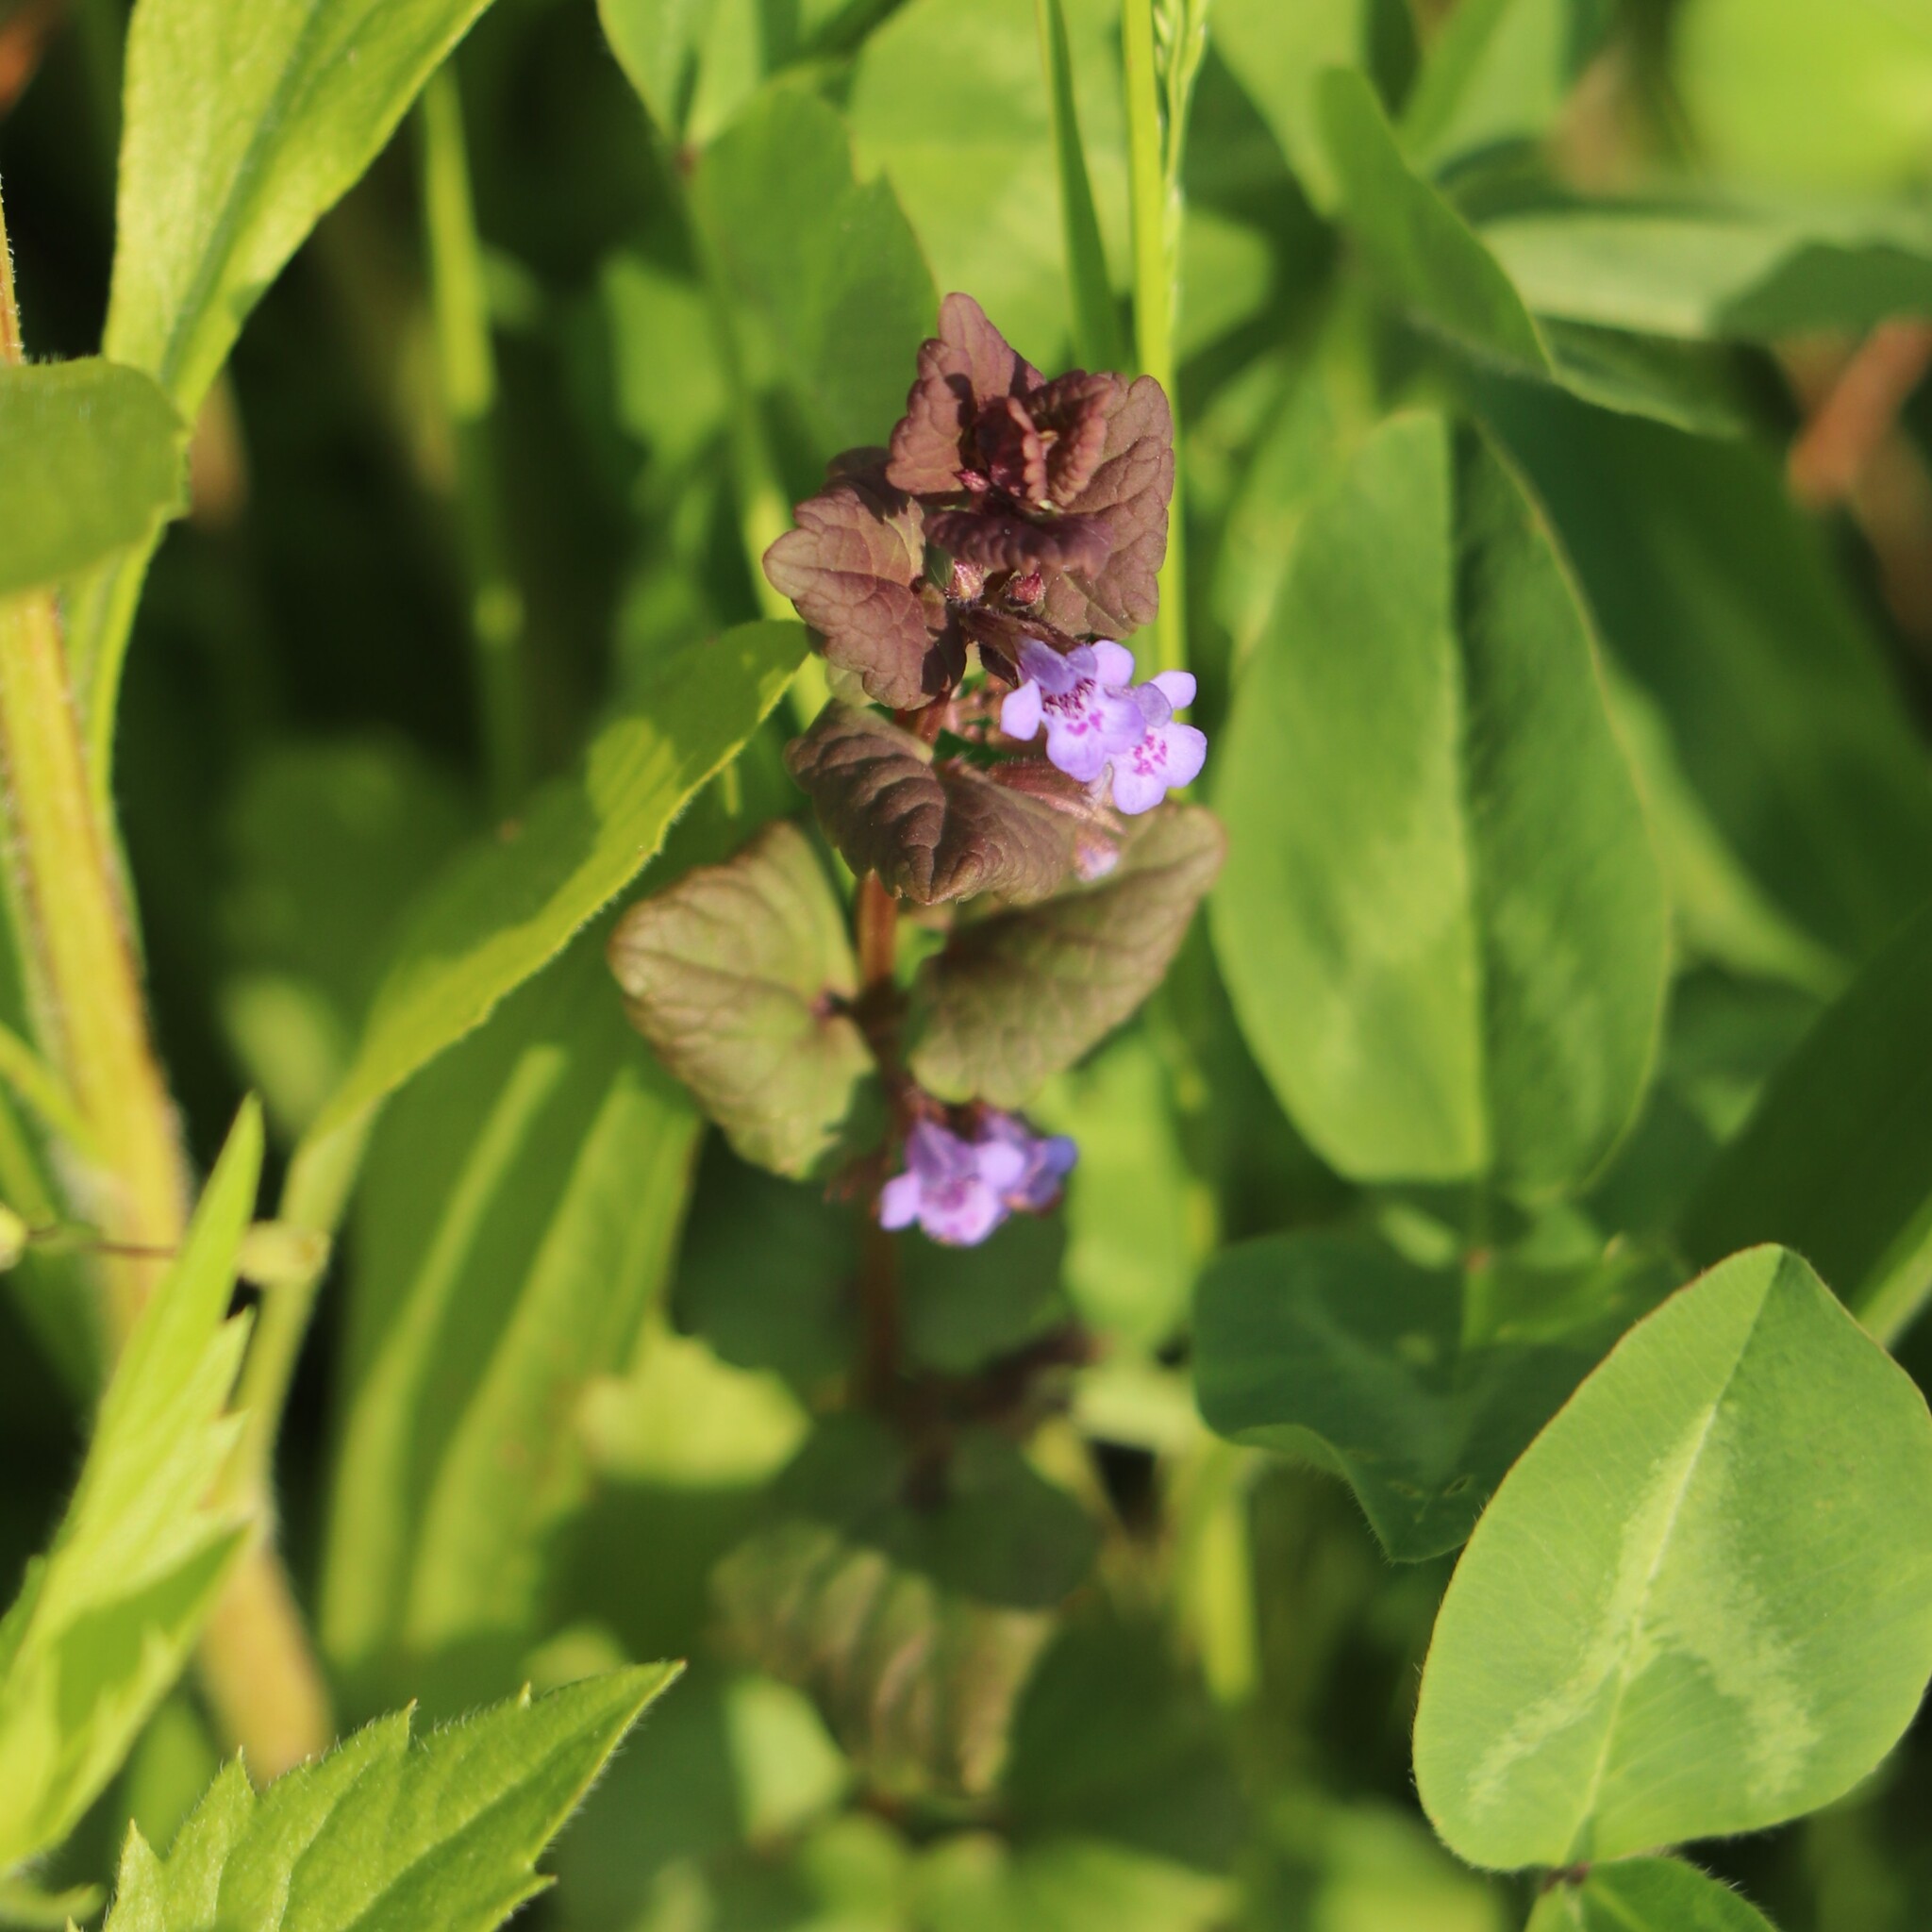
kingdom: Plantae
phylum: Tracheophyta
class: Magnoliopsida
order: Lamiales
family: Lamiaceae
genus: Glechoma
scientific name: Glechoma hederacea
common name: Ground ivy
